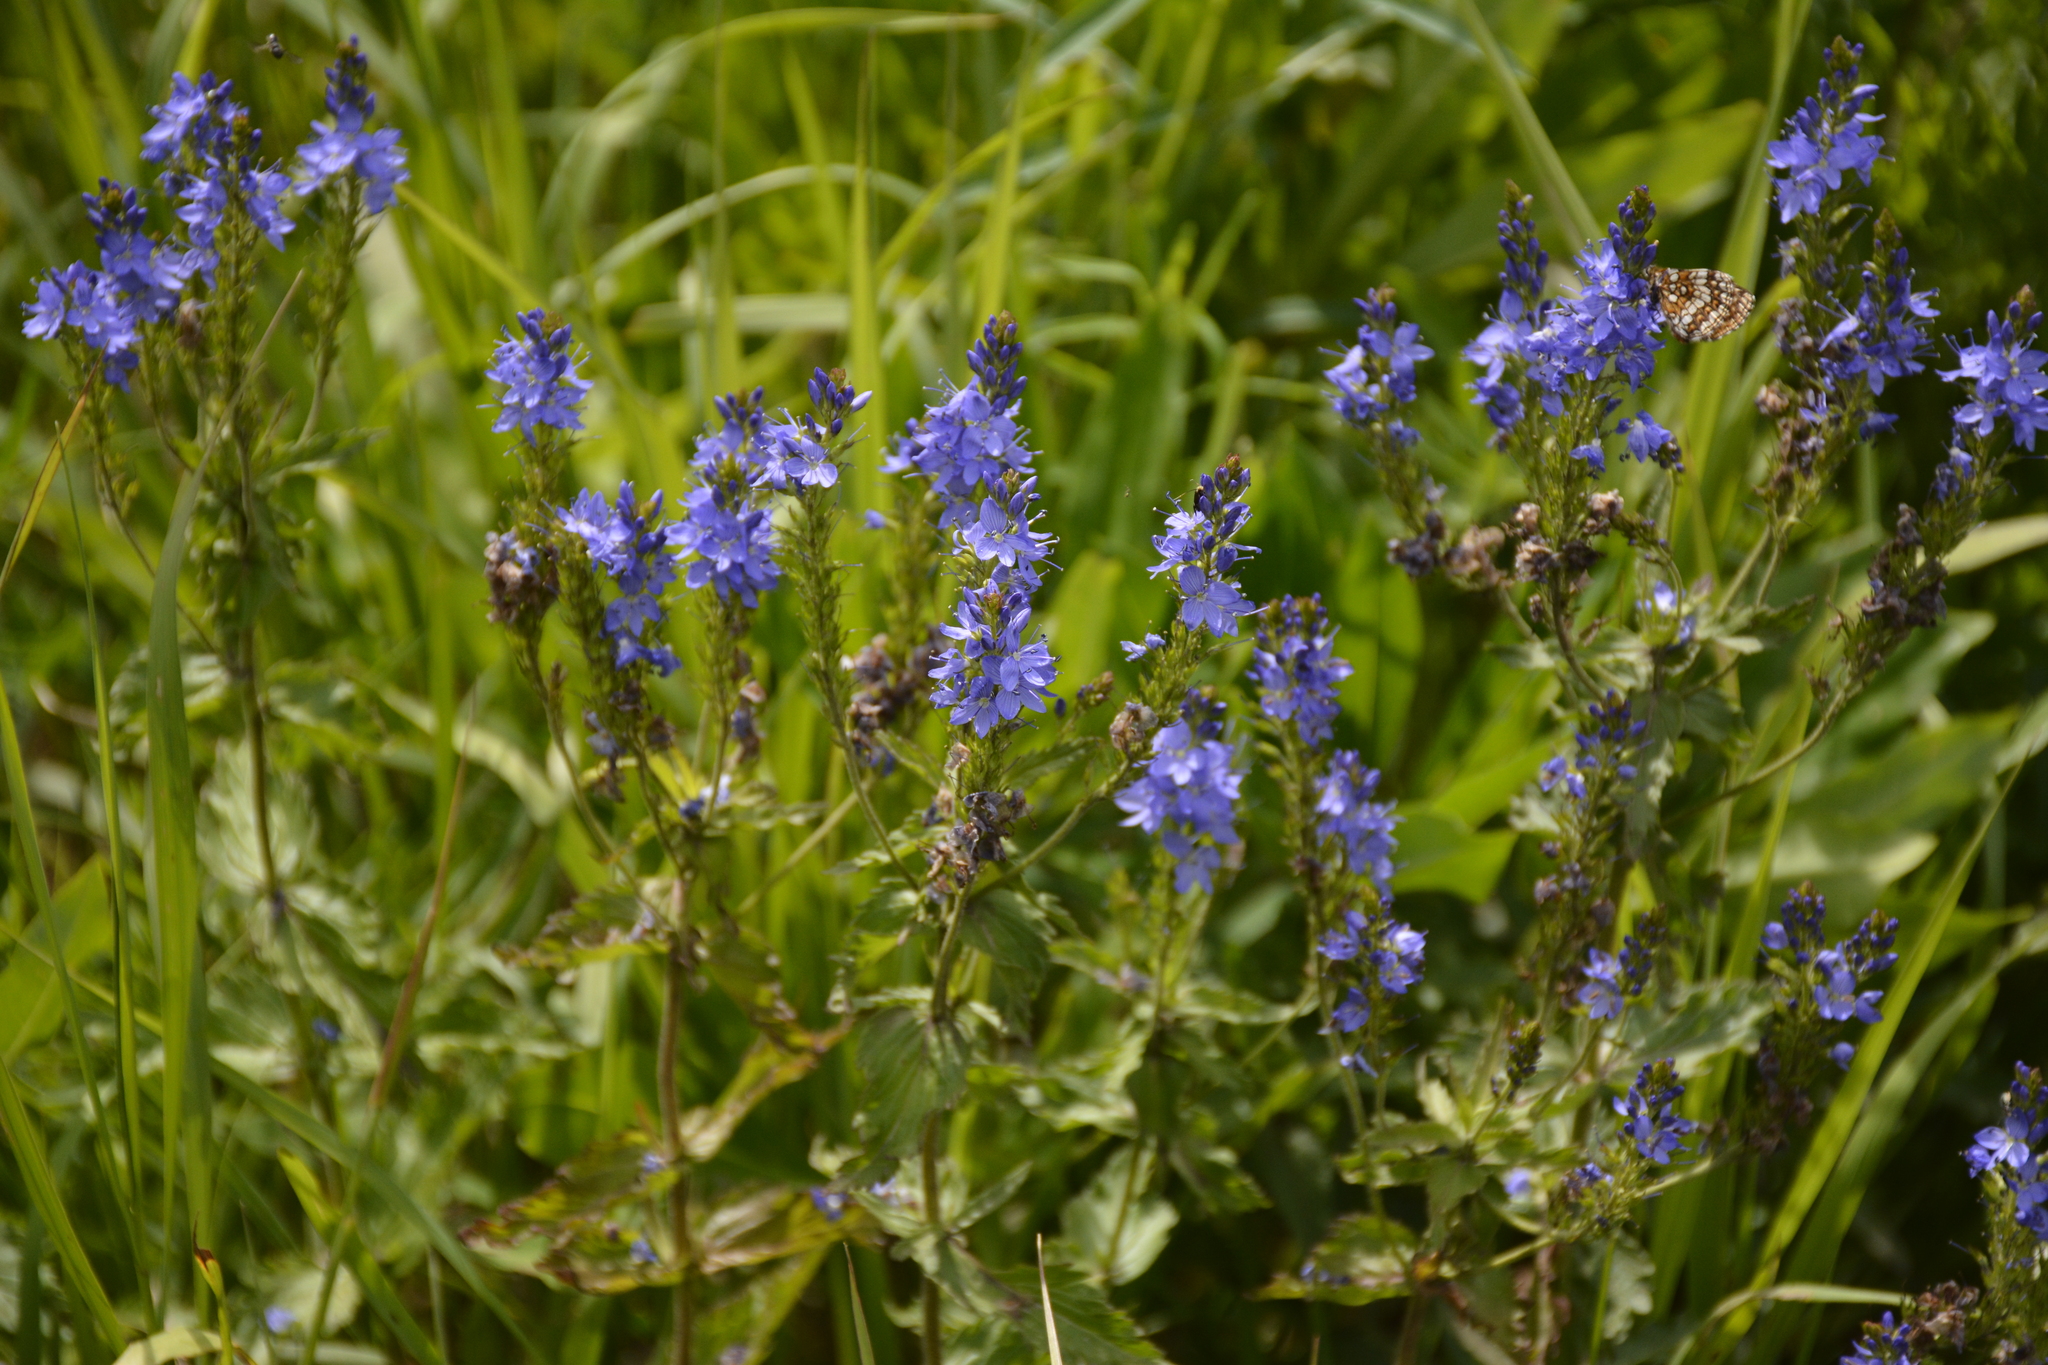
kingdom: Plantae
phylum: Tracheophyta
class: Magnoliopsida
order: Lamiales
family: Plantaginaceae
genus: Veronica
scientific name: Veronica teucrium
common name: Large speedwell
